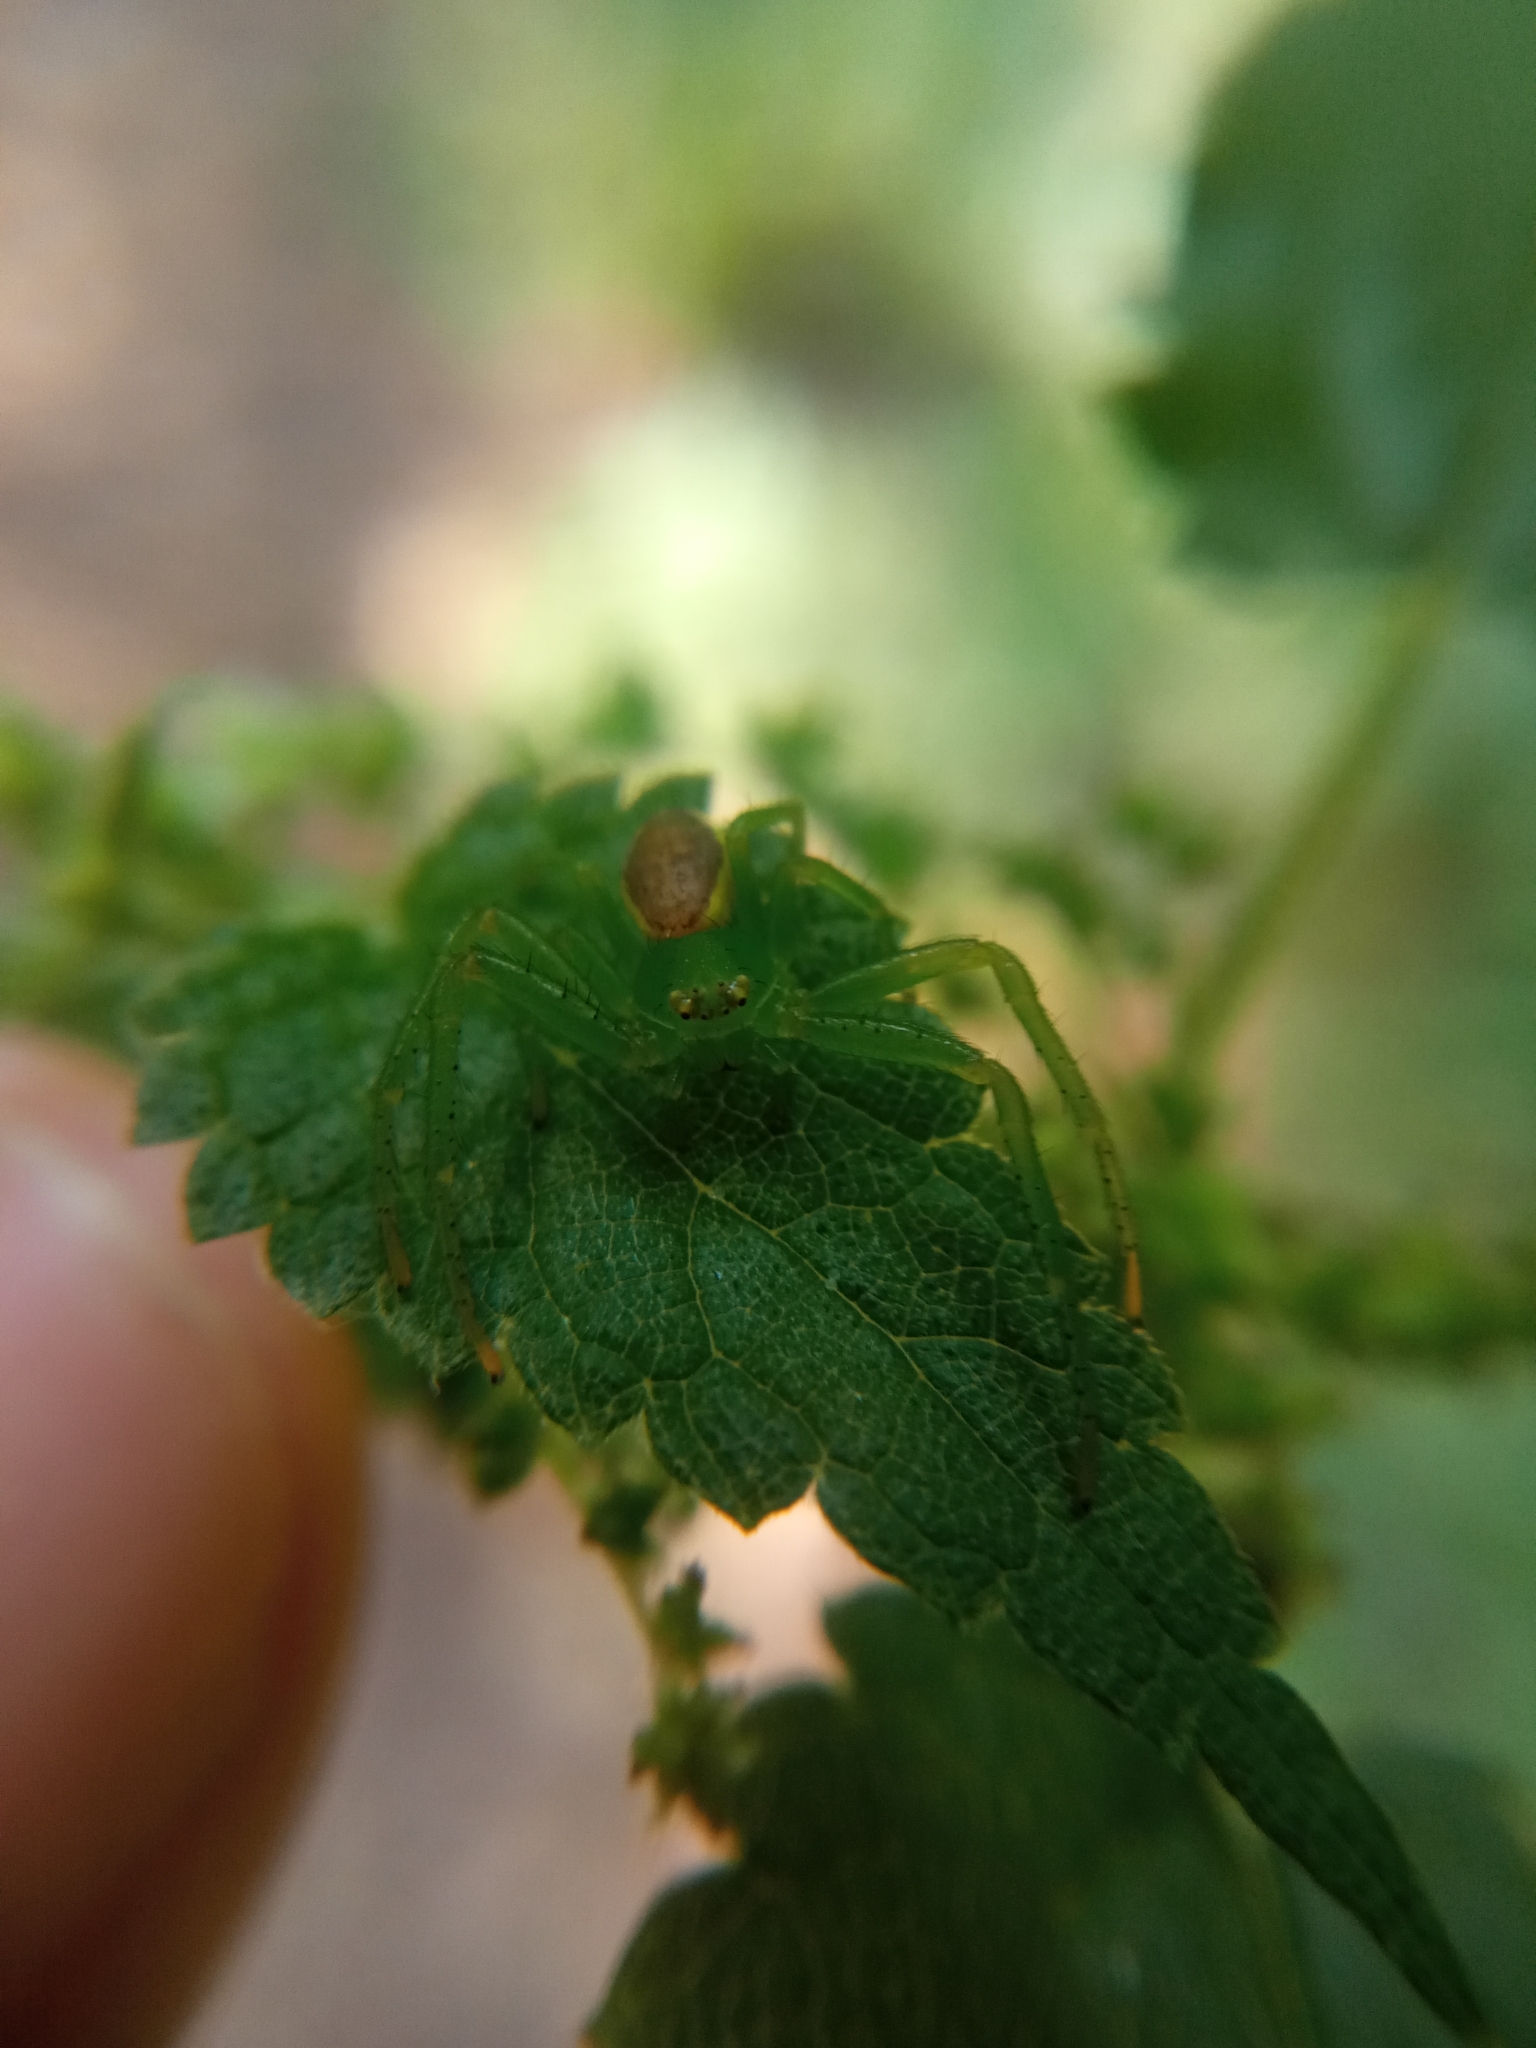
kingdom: Animalia
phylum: Arthropoda
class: Arachnida
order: Araneae
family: Thomisidae
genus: Diaea
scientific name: Diaea dorsata
